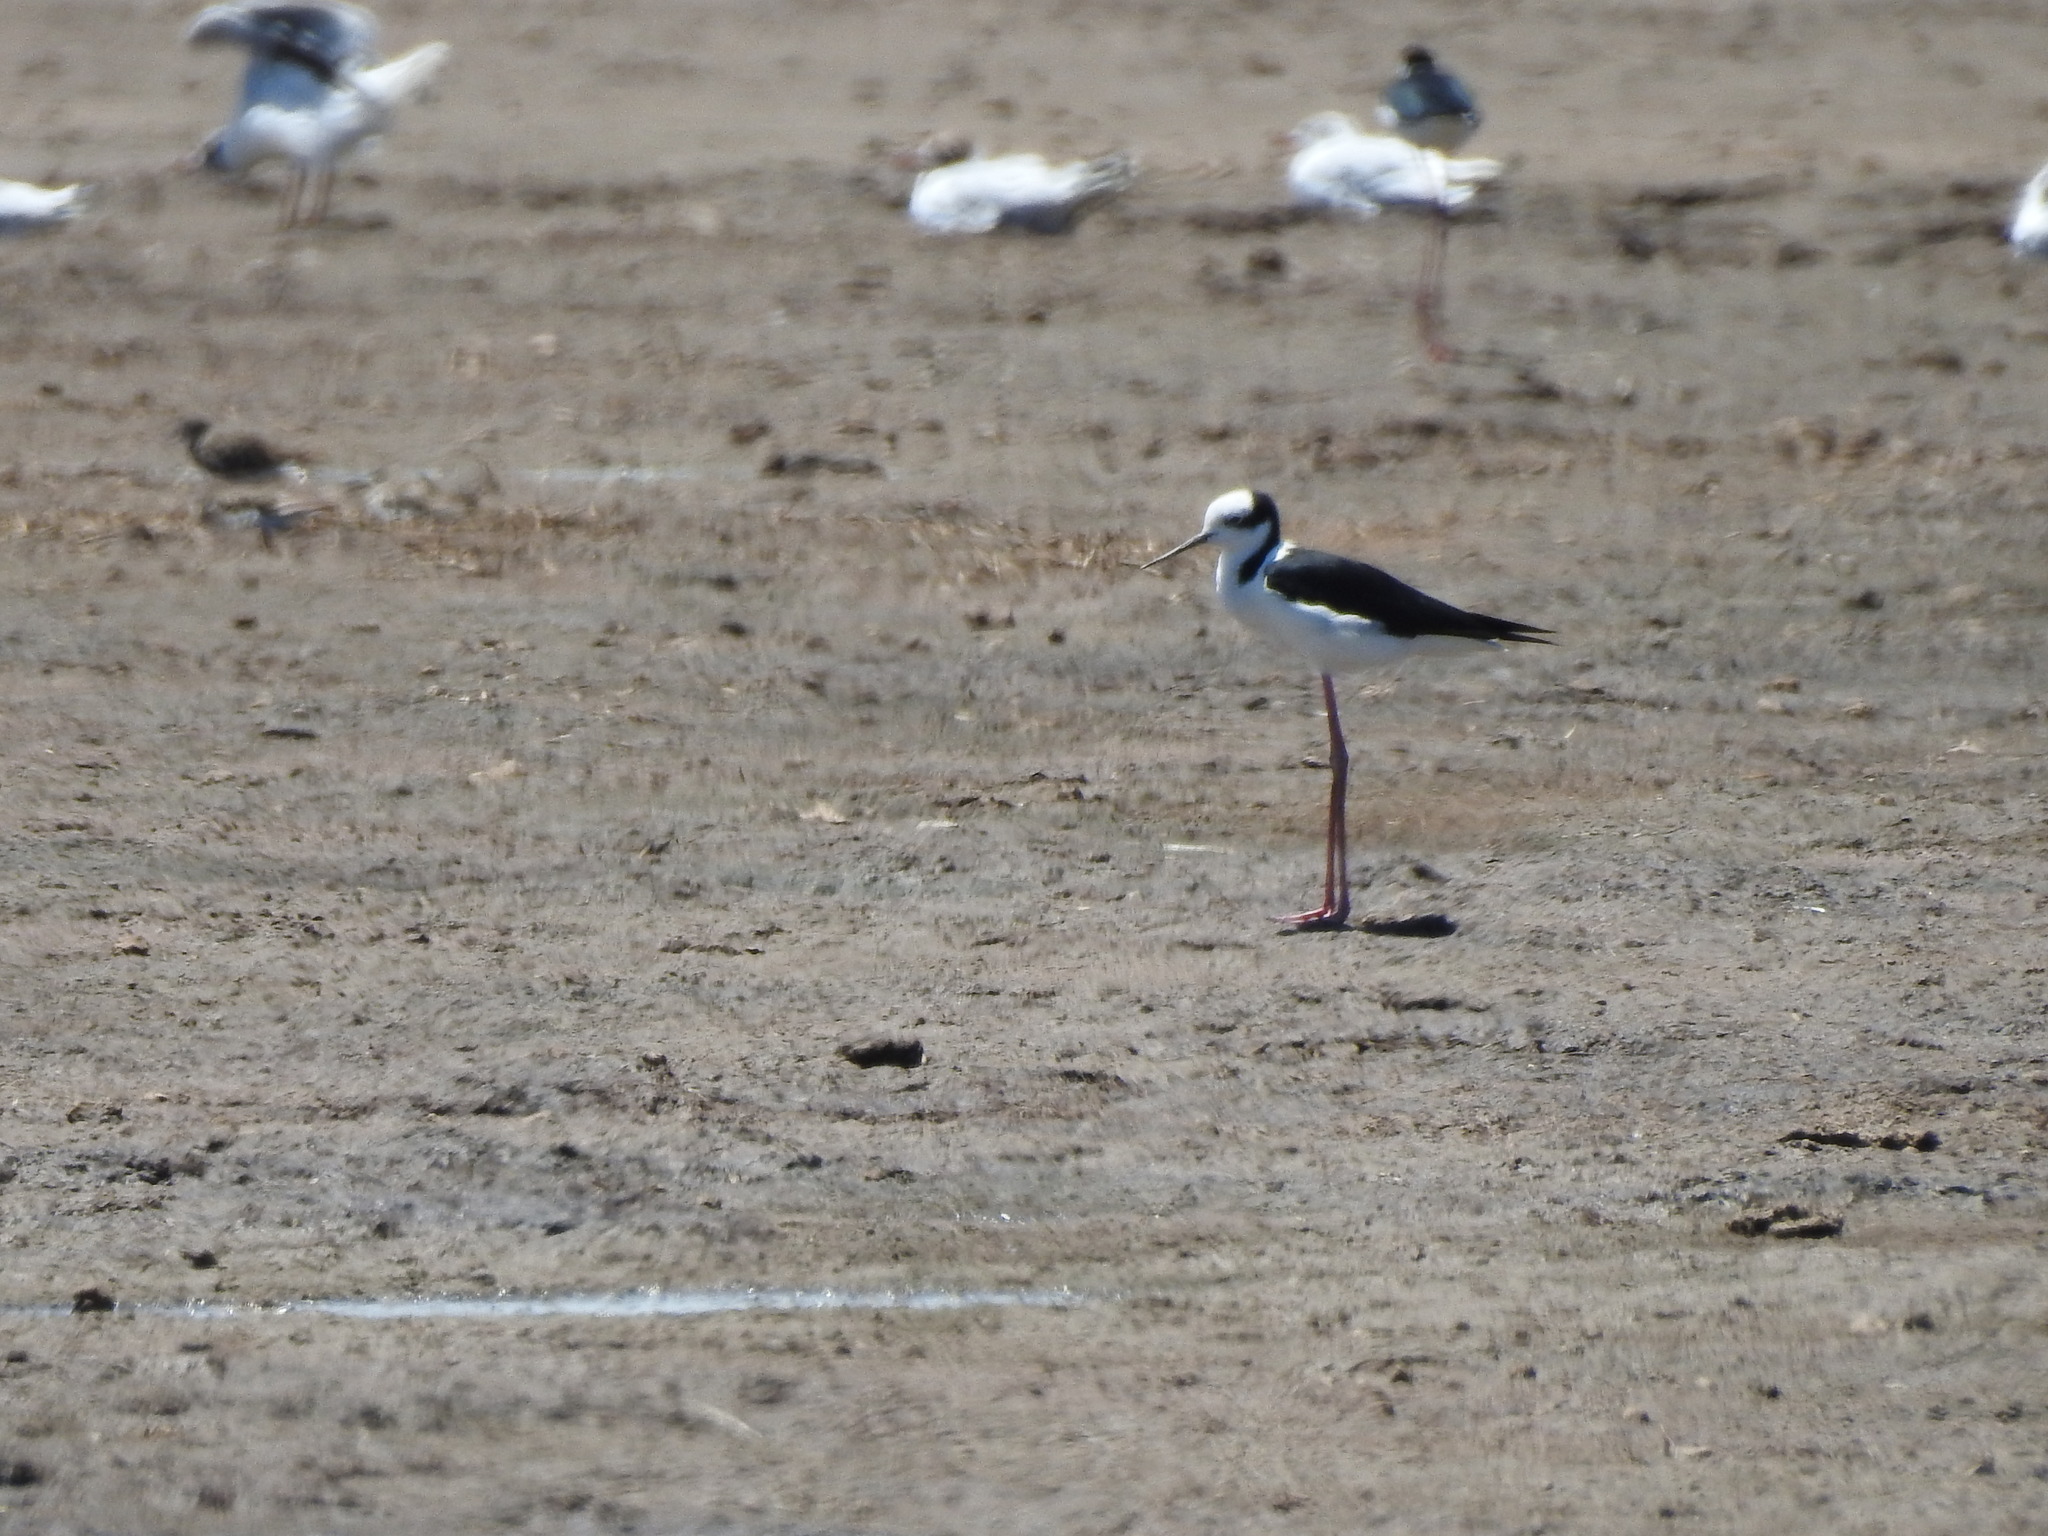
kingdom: Animalia
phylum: Chordata
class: Aves
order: Charadriiformes
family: Recurvirostridae
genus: Himantopus
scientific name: Himantopus mexicanus
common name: Black-necked stilt
